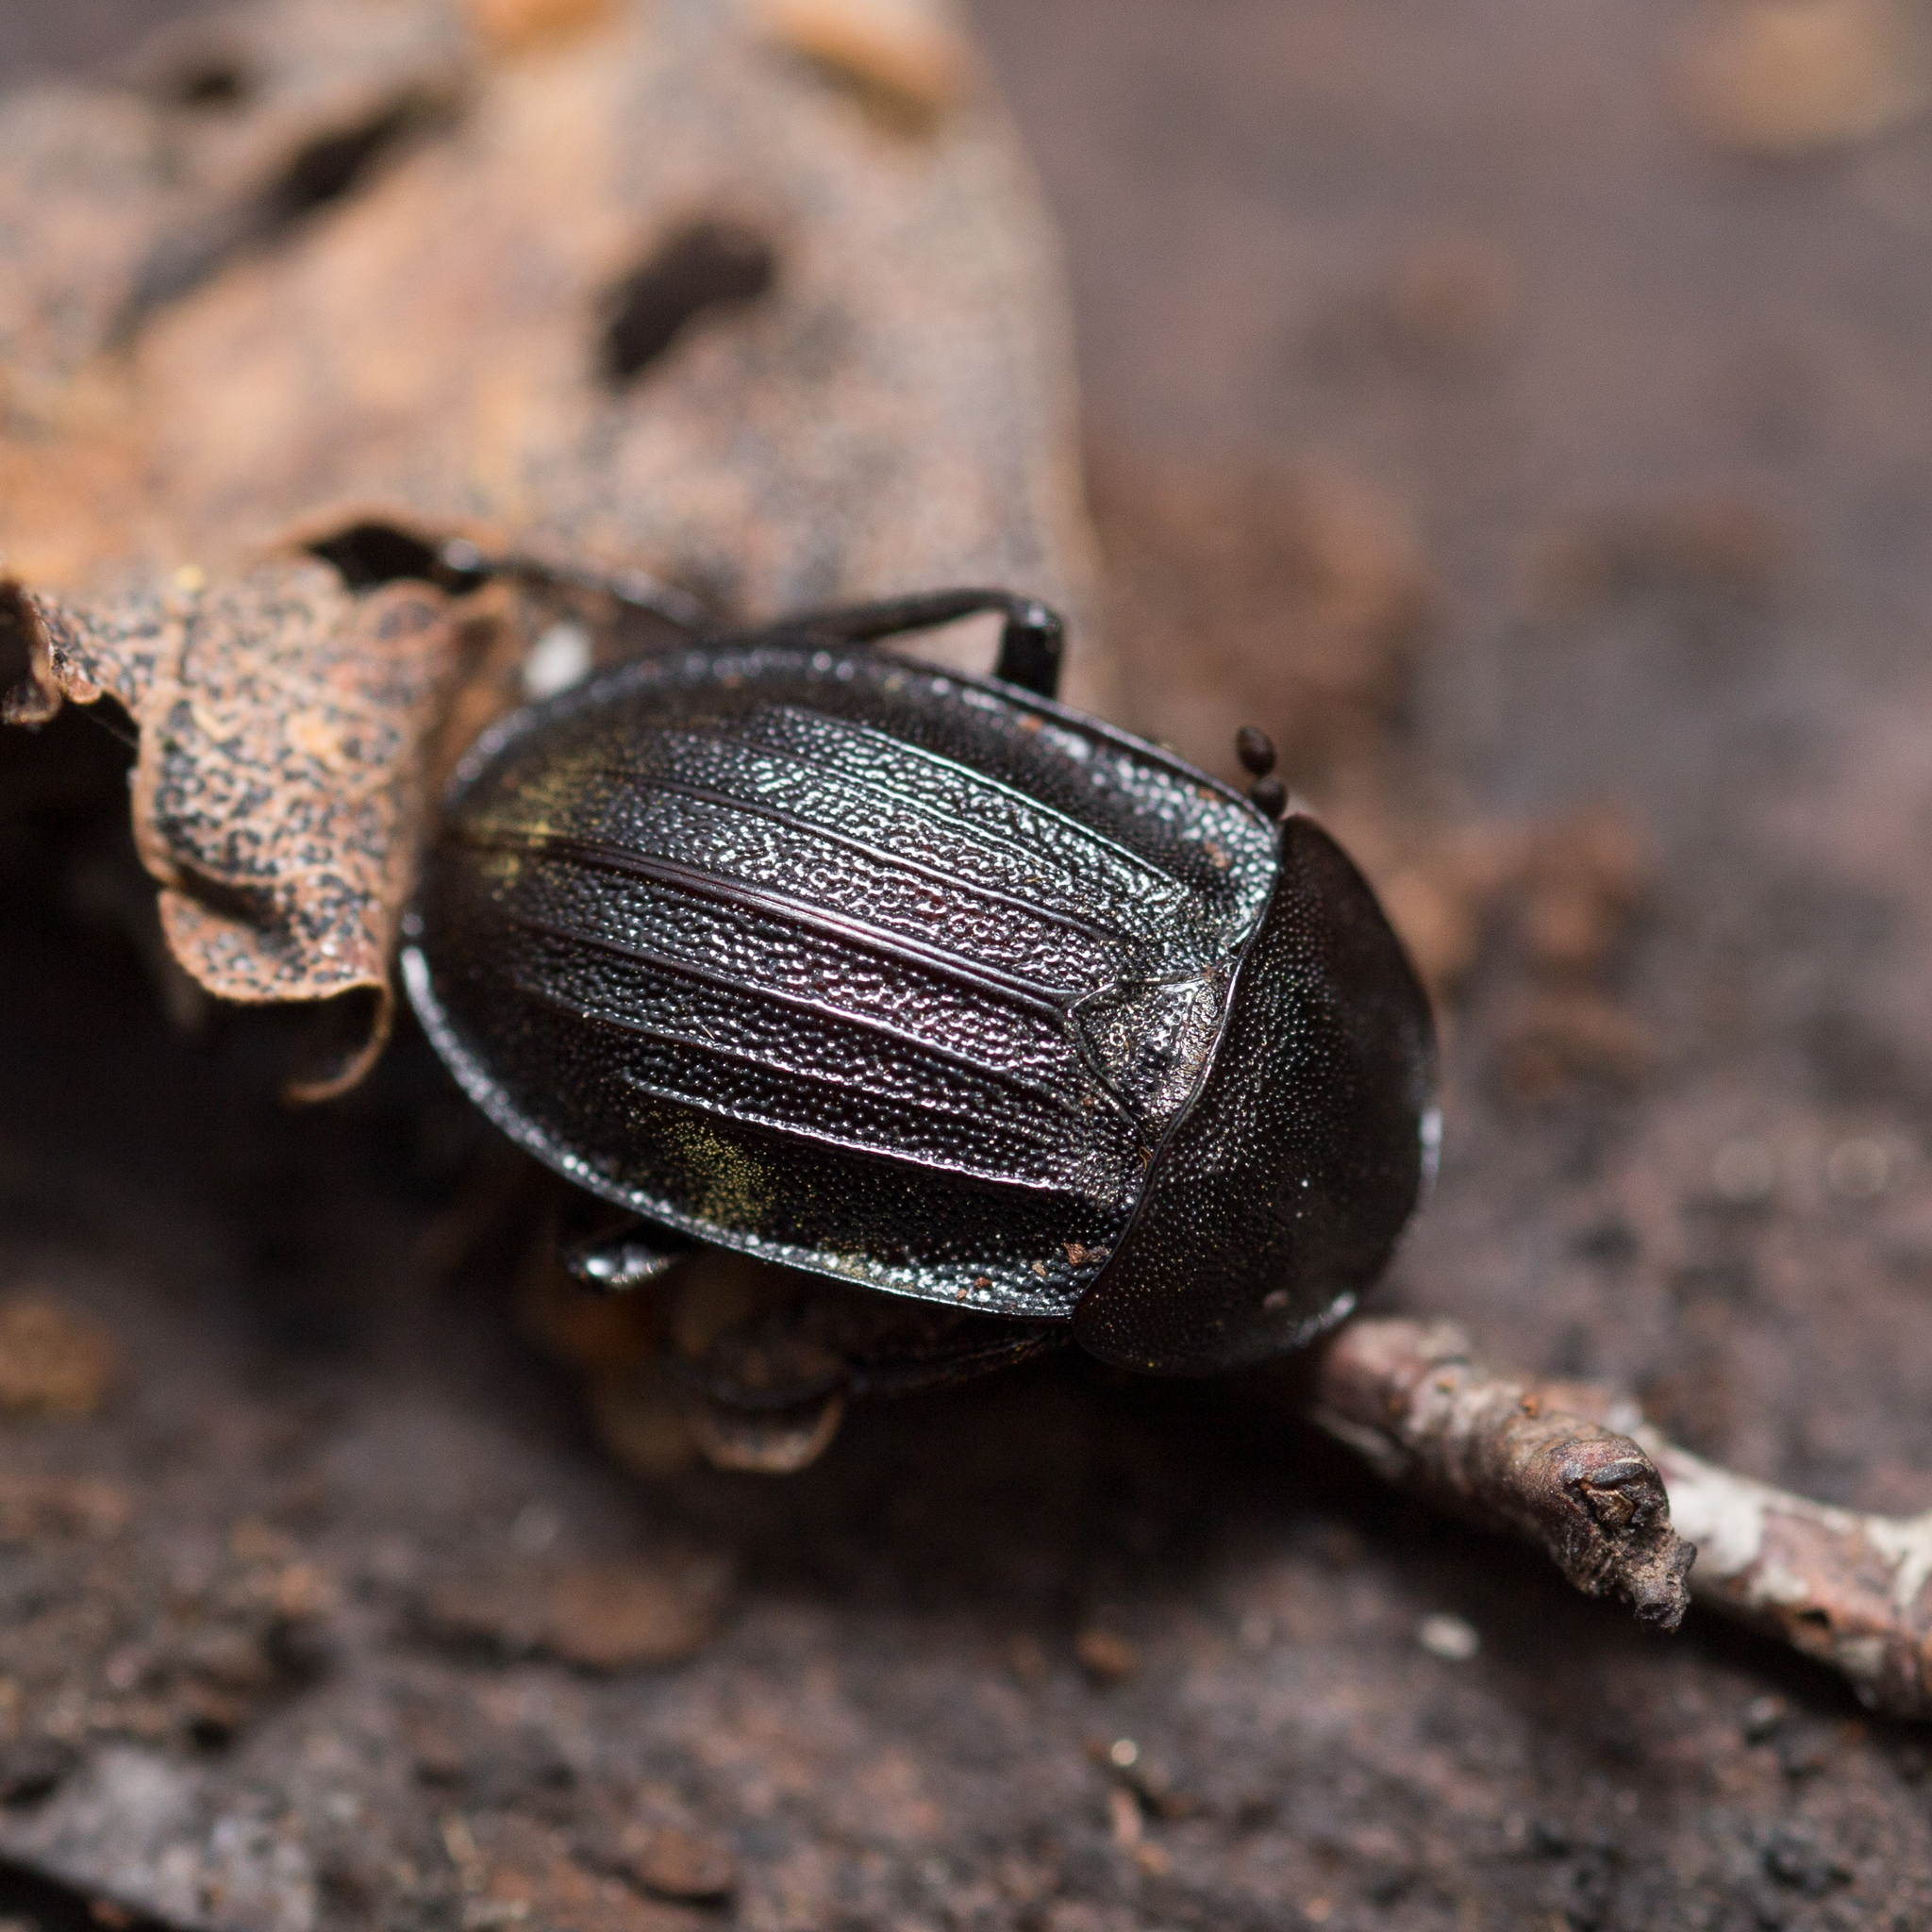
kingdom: Animalia
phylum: Arthropoda
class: Insecta
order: Coleoptera
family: Staphylinidae
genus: Silpha
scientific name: Silpha atrata
